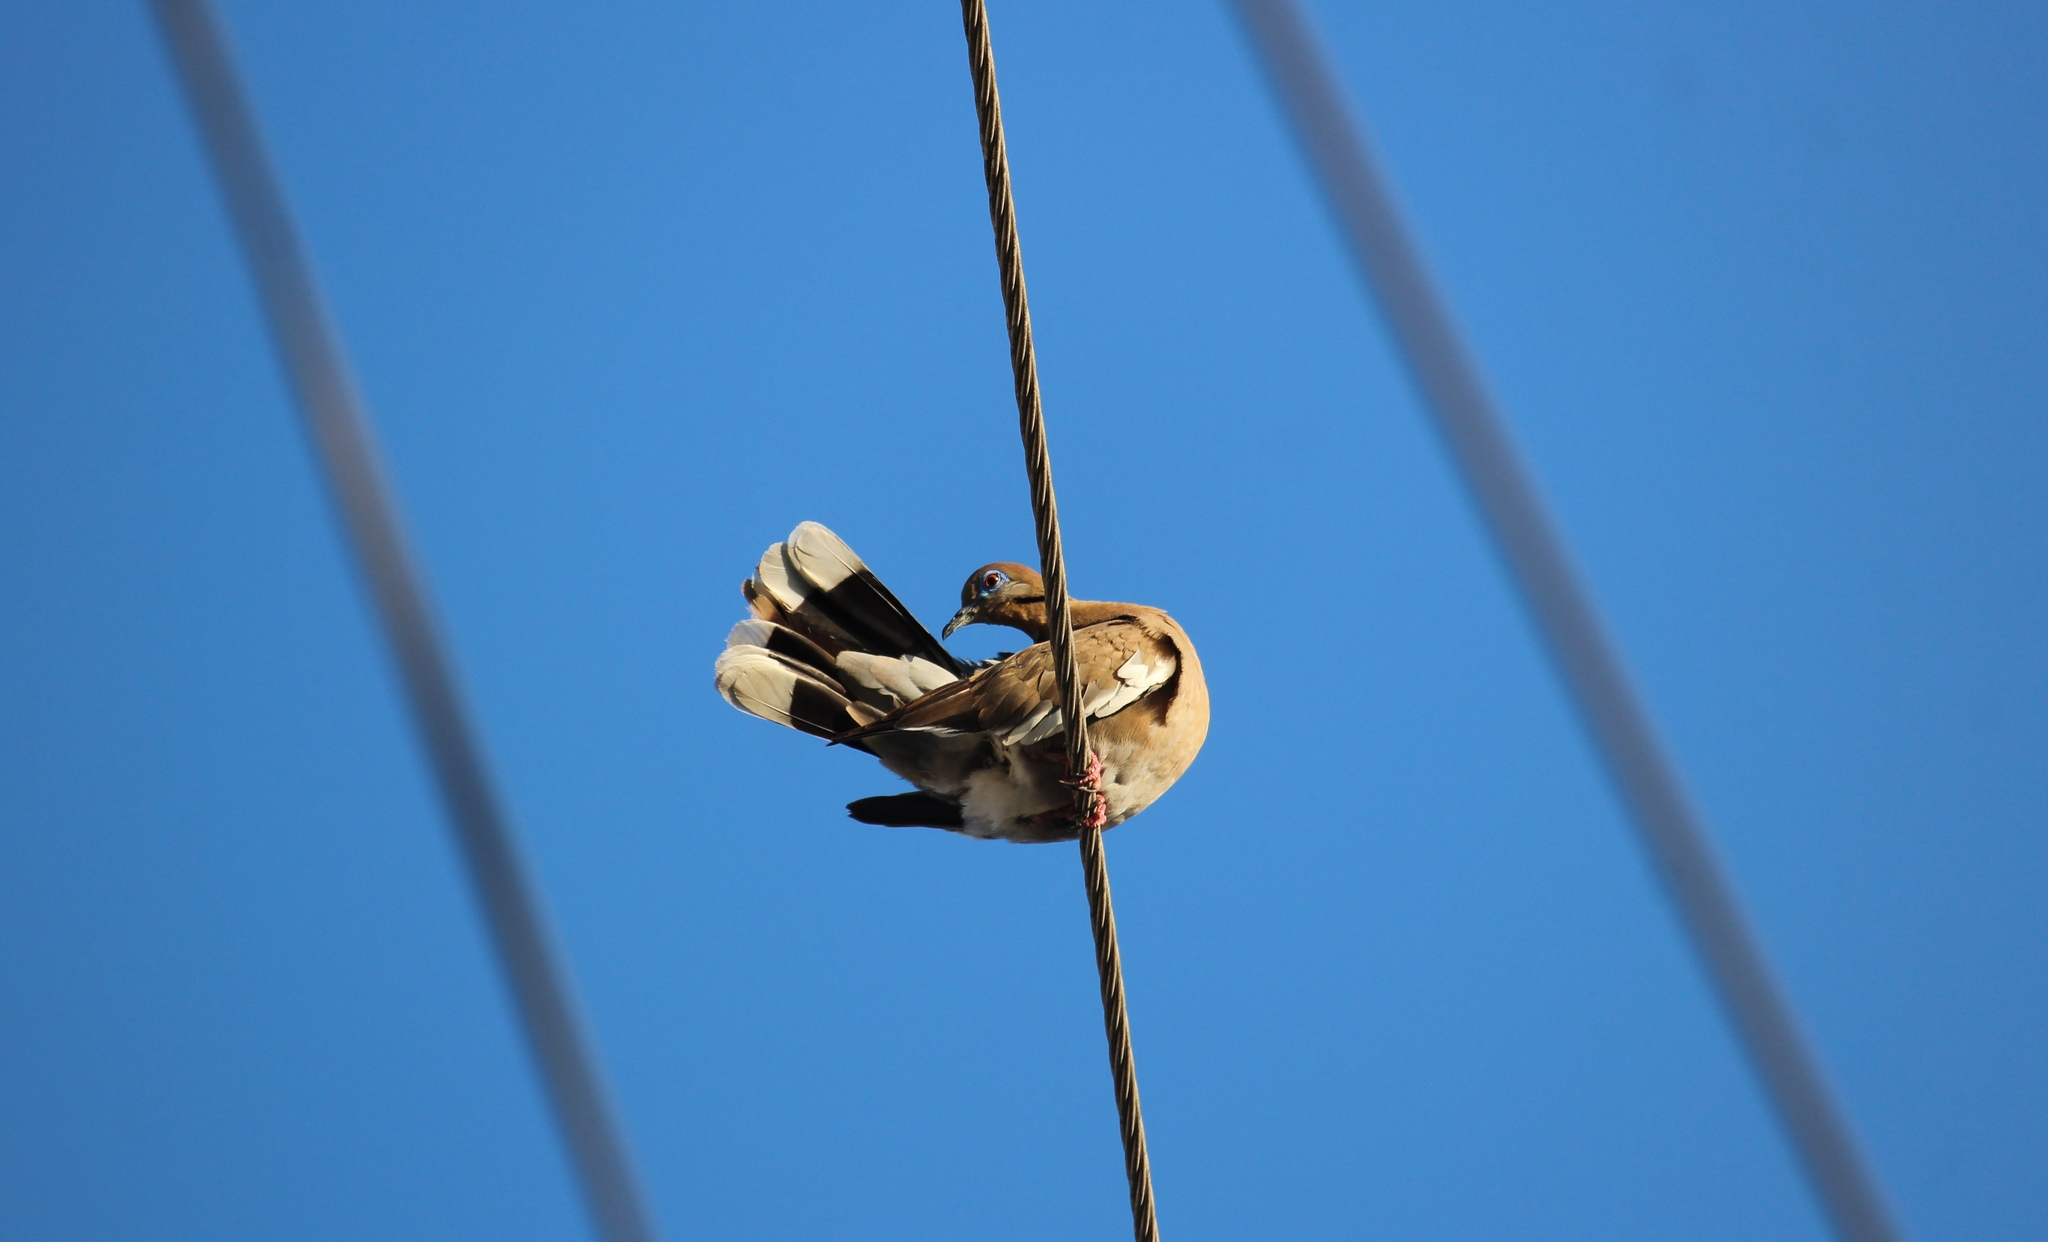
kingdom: Animalia
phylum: Chordata
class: Aves
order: Columbiformes
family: Columbidae
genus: Zenaida
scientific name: Zenaida asiatica
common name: White-winged dove
